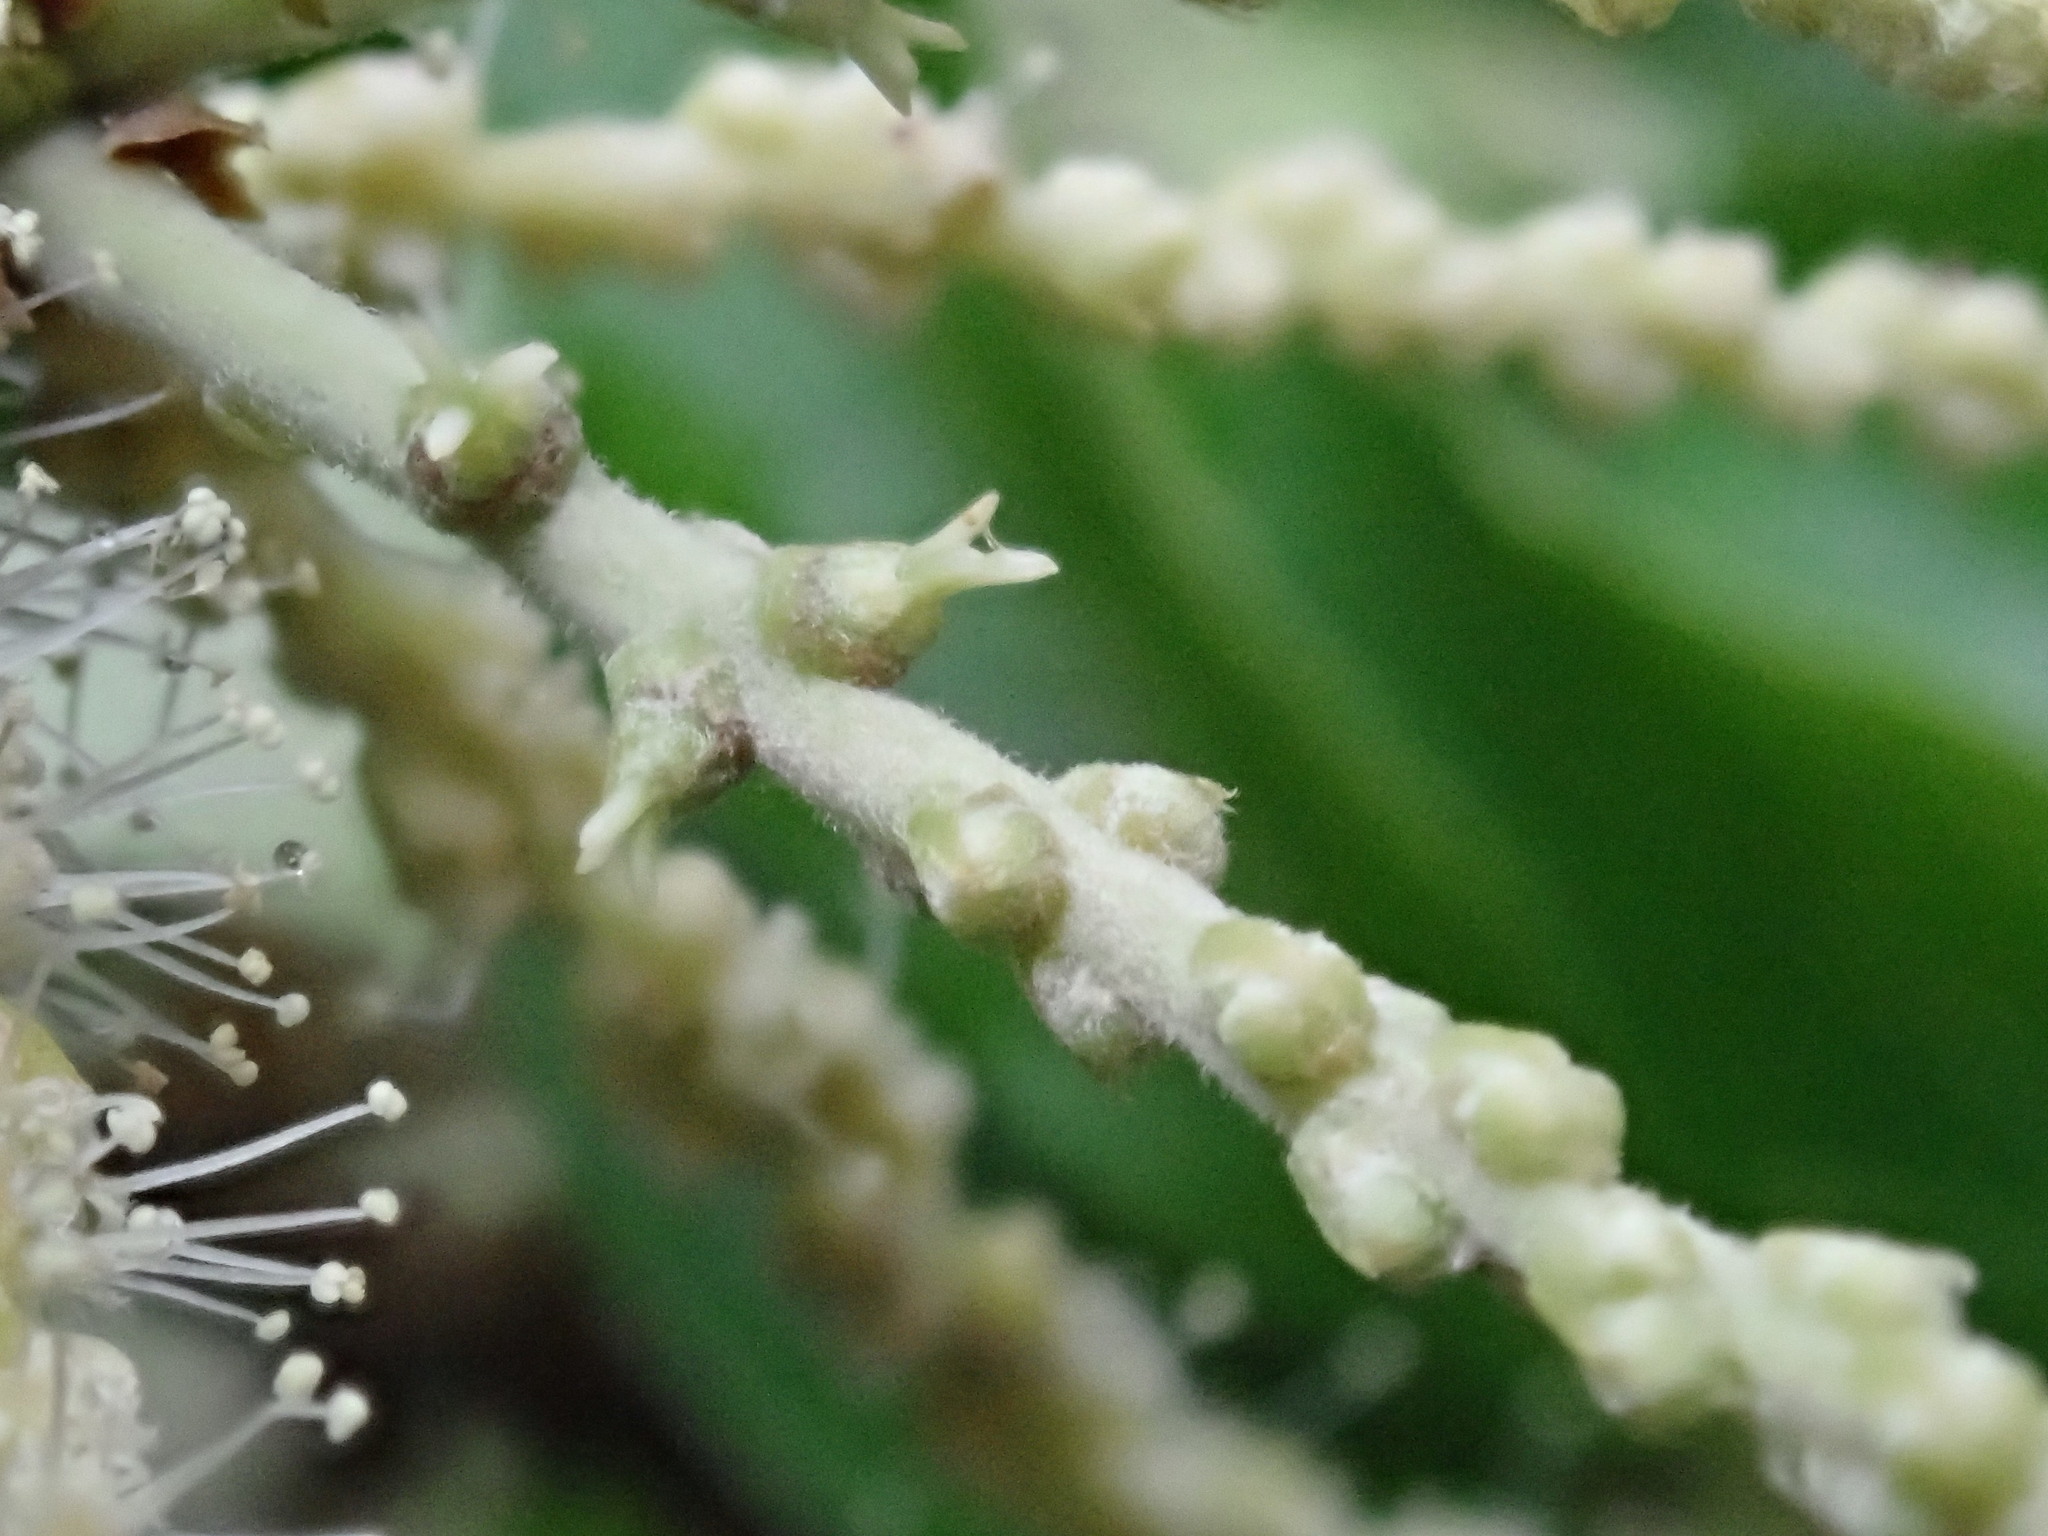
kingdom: Plantae
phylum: Tracheophyta
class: Magnoliopsida
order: Fagales
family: Fagaceae
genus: Lithocarpus
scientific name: Lithocarpus konishii
